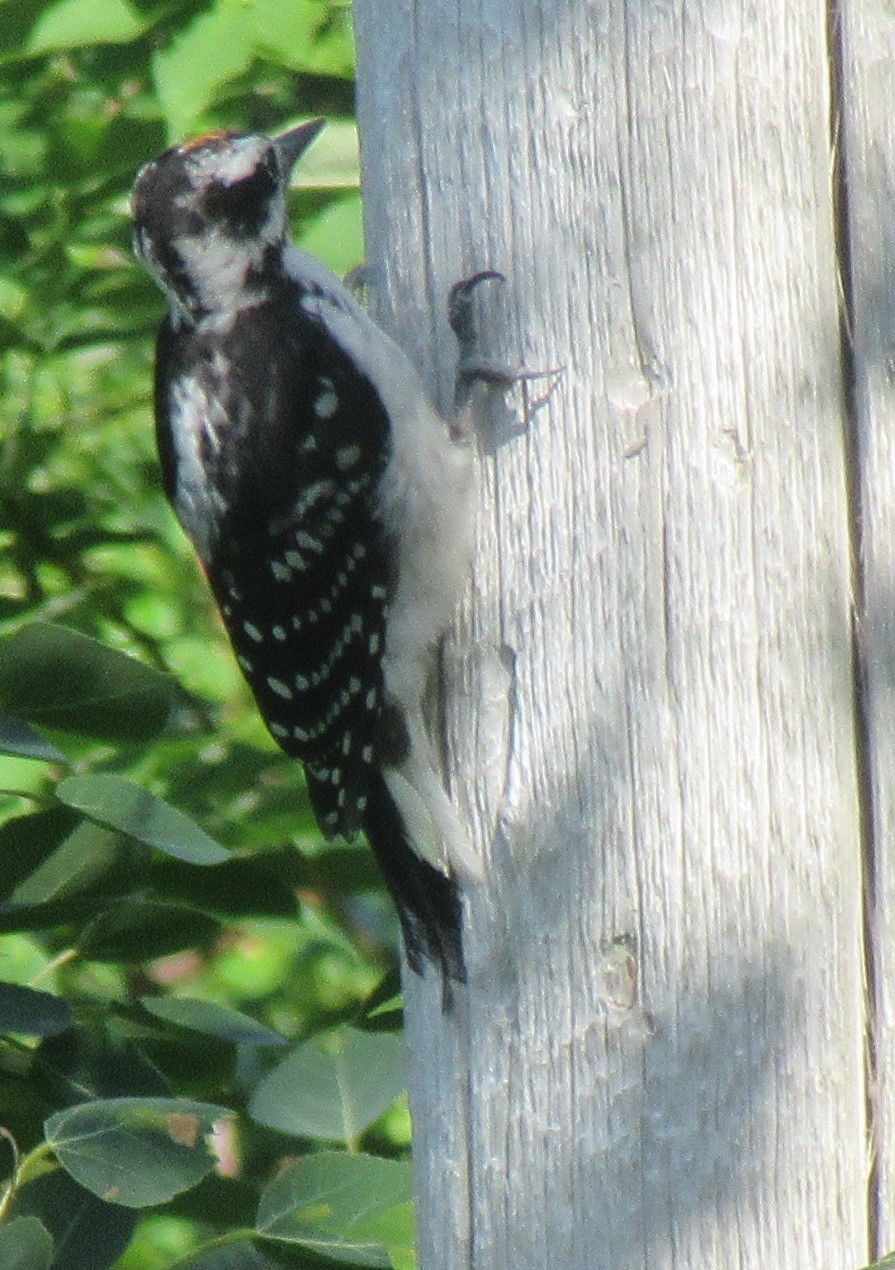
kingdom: Animalia
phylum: Chordata
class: Aves
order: Piciformes
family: Picidae
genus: Leuconotopicus
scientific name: Leuconotopicus villosus
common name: Hairy woodpecker
